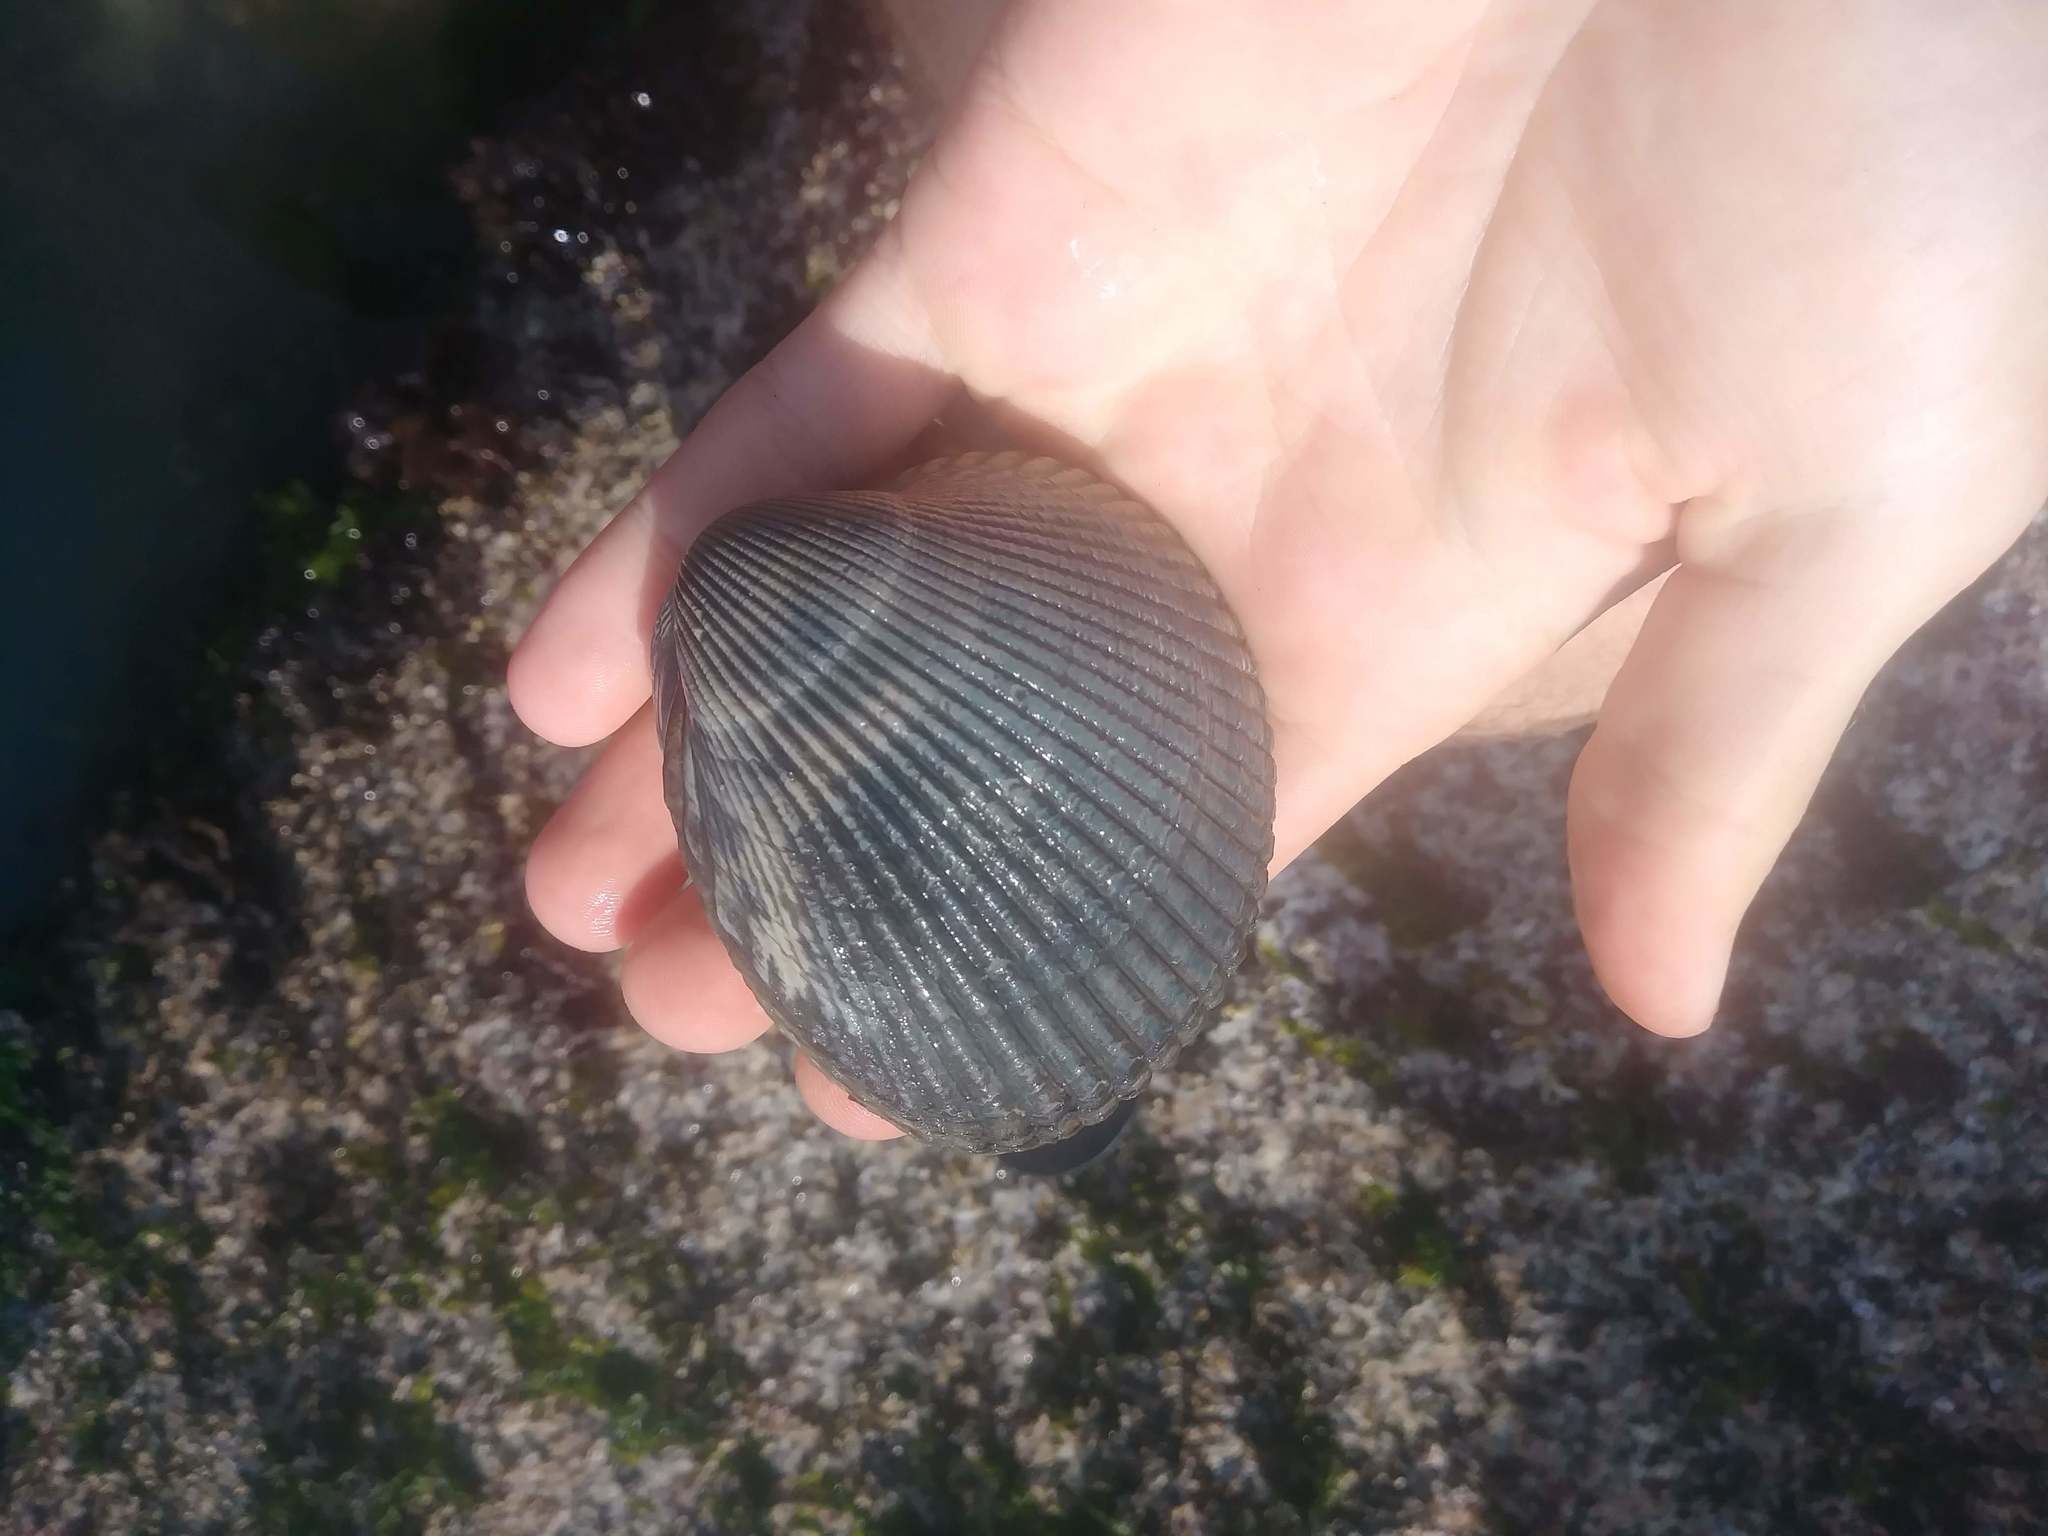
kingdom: Animalia
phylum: Mollusca
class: Bivalvia
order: Cardiida
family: Cardiidae
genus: Clinocardium
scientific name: Clinocardium nuttallii
